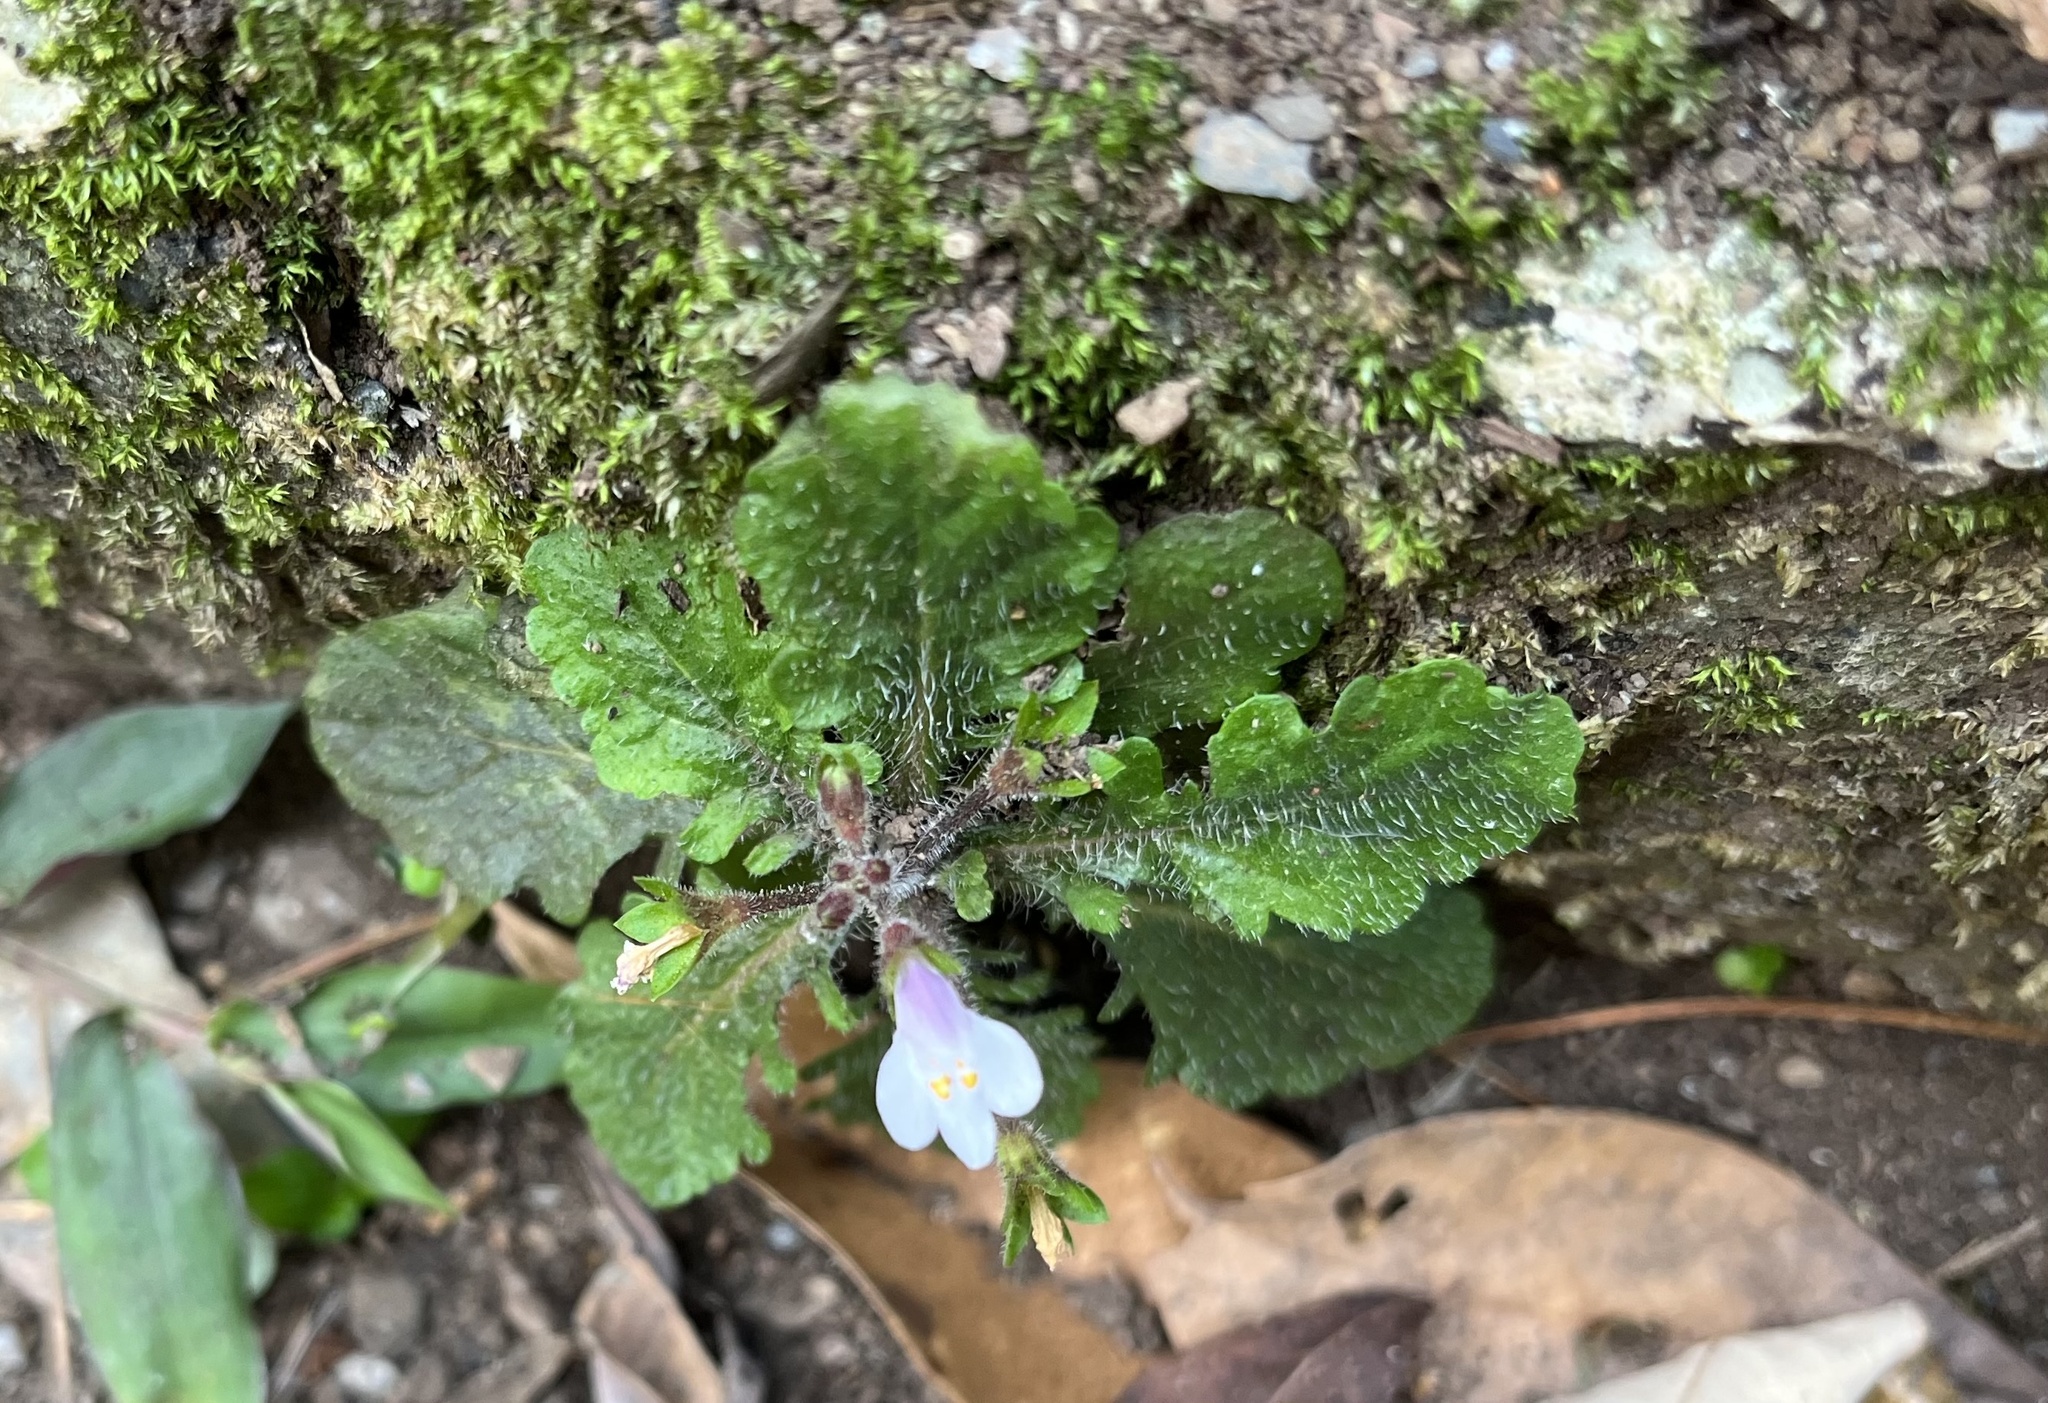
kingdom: Plantae
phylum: Tracheophyta
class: Magnoliopsida
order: Lamiales
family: Mazaceae
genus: Mazus
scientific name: Mazus goodeniifolius
